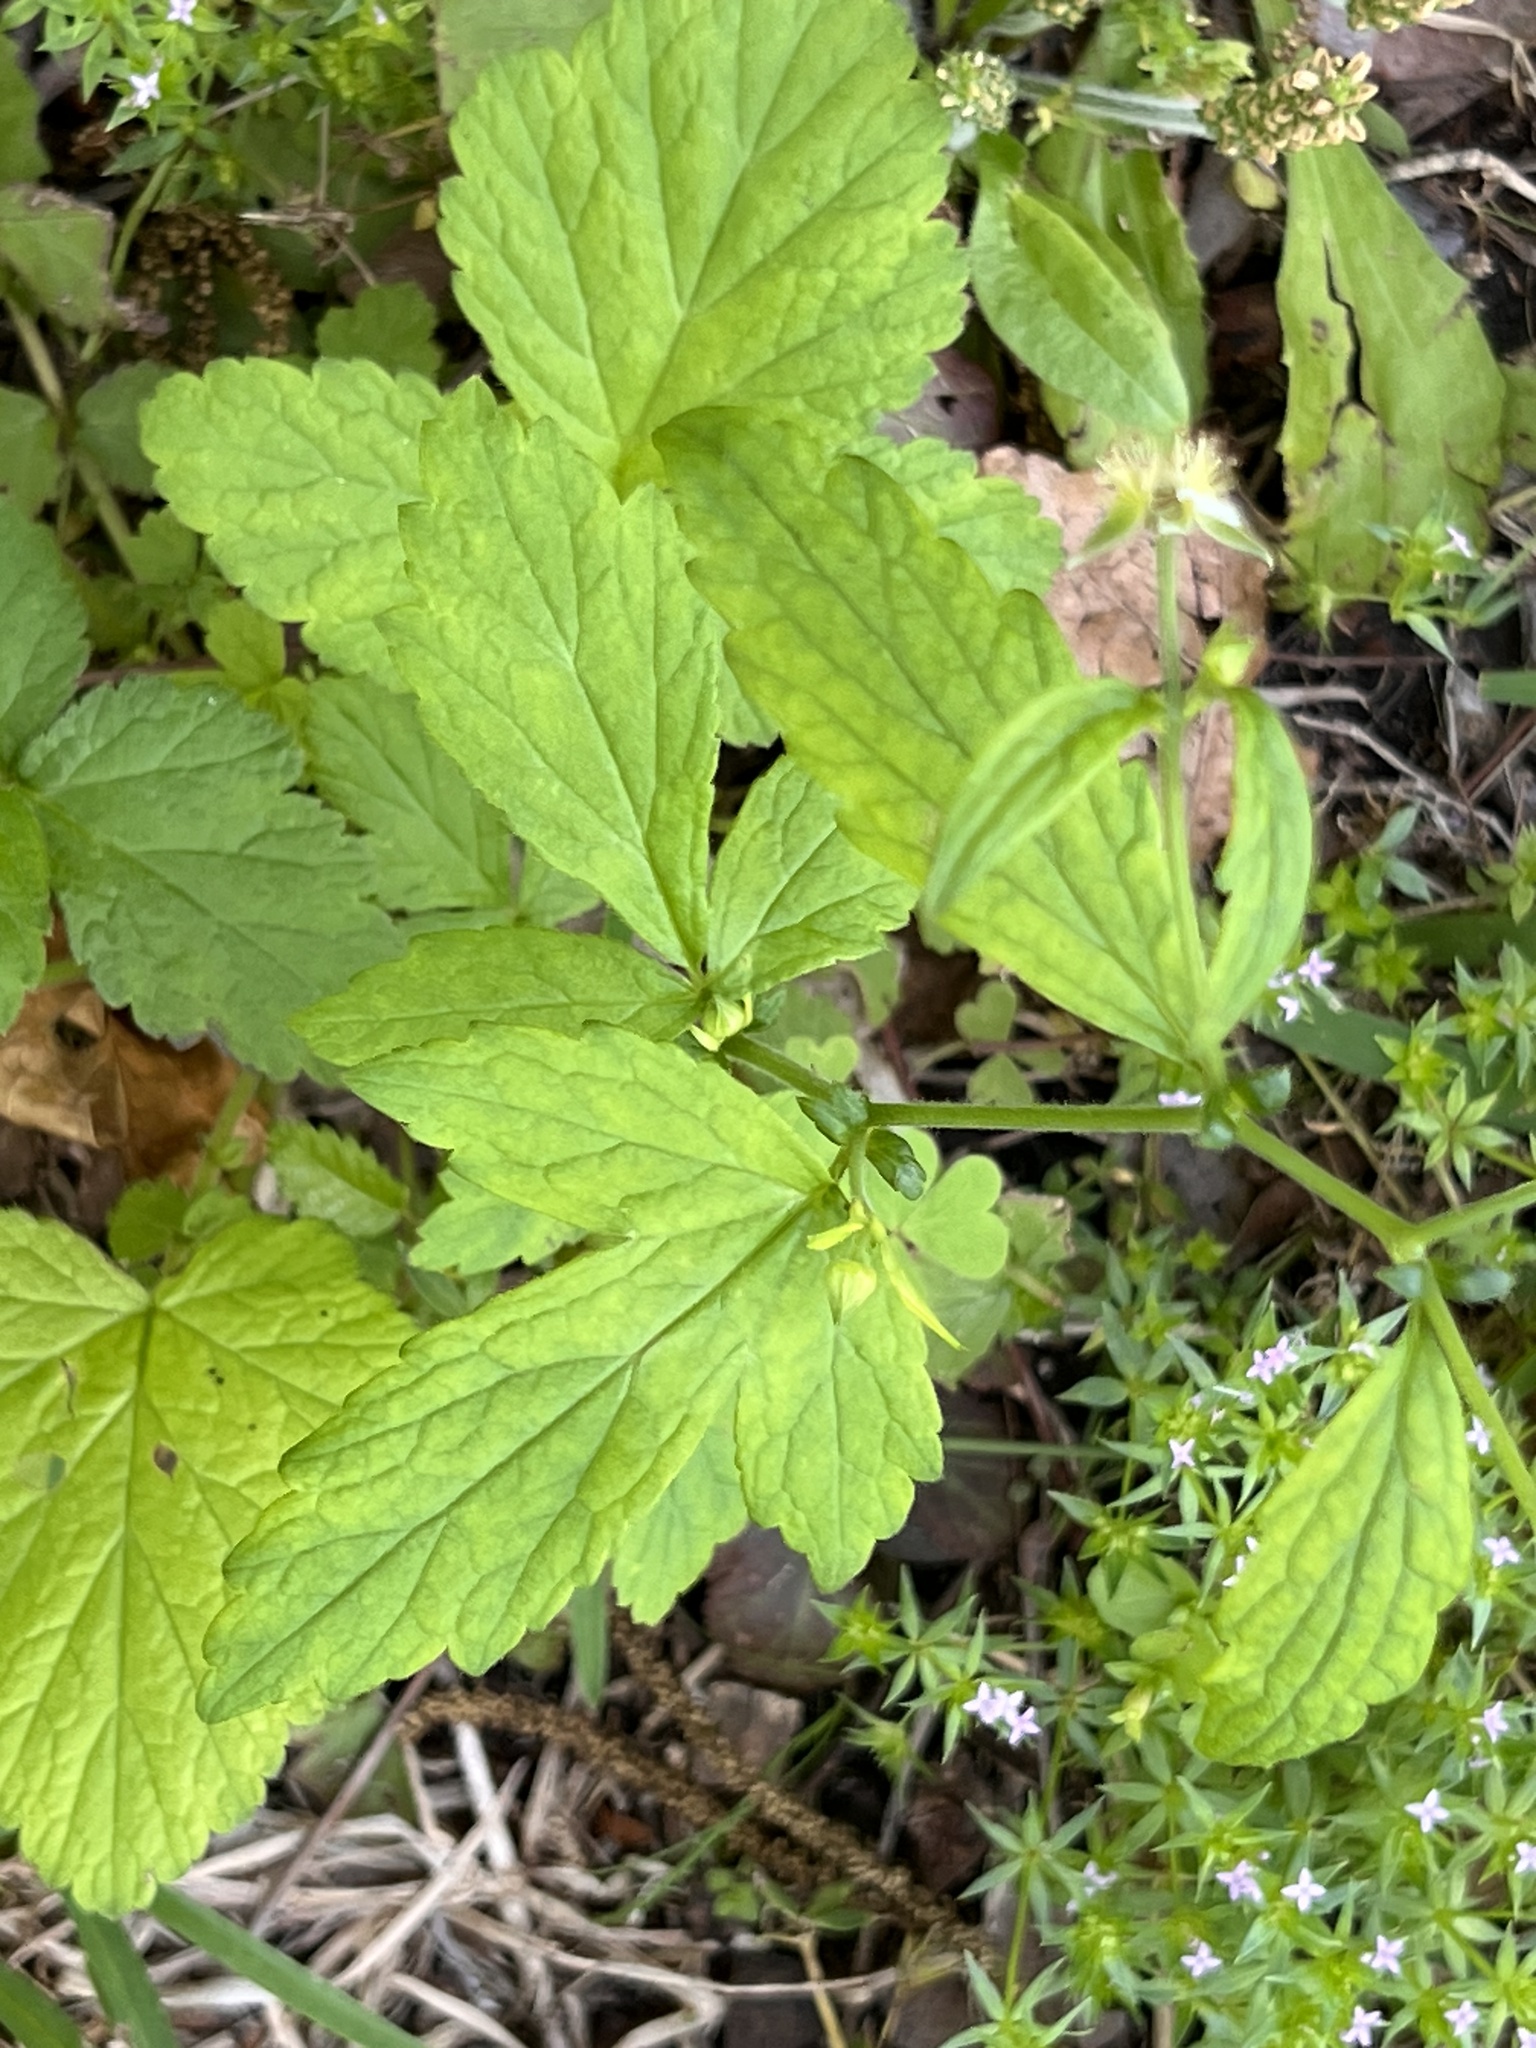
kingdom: Plantae
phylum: Tracheophyta
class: Magnoliopsida
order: Rosales
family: Rosaceae
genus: Geum
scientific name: Geum canadense
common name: White avens
